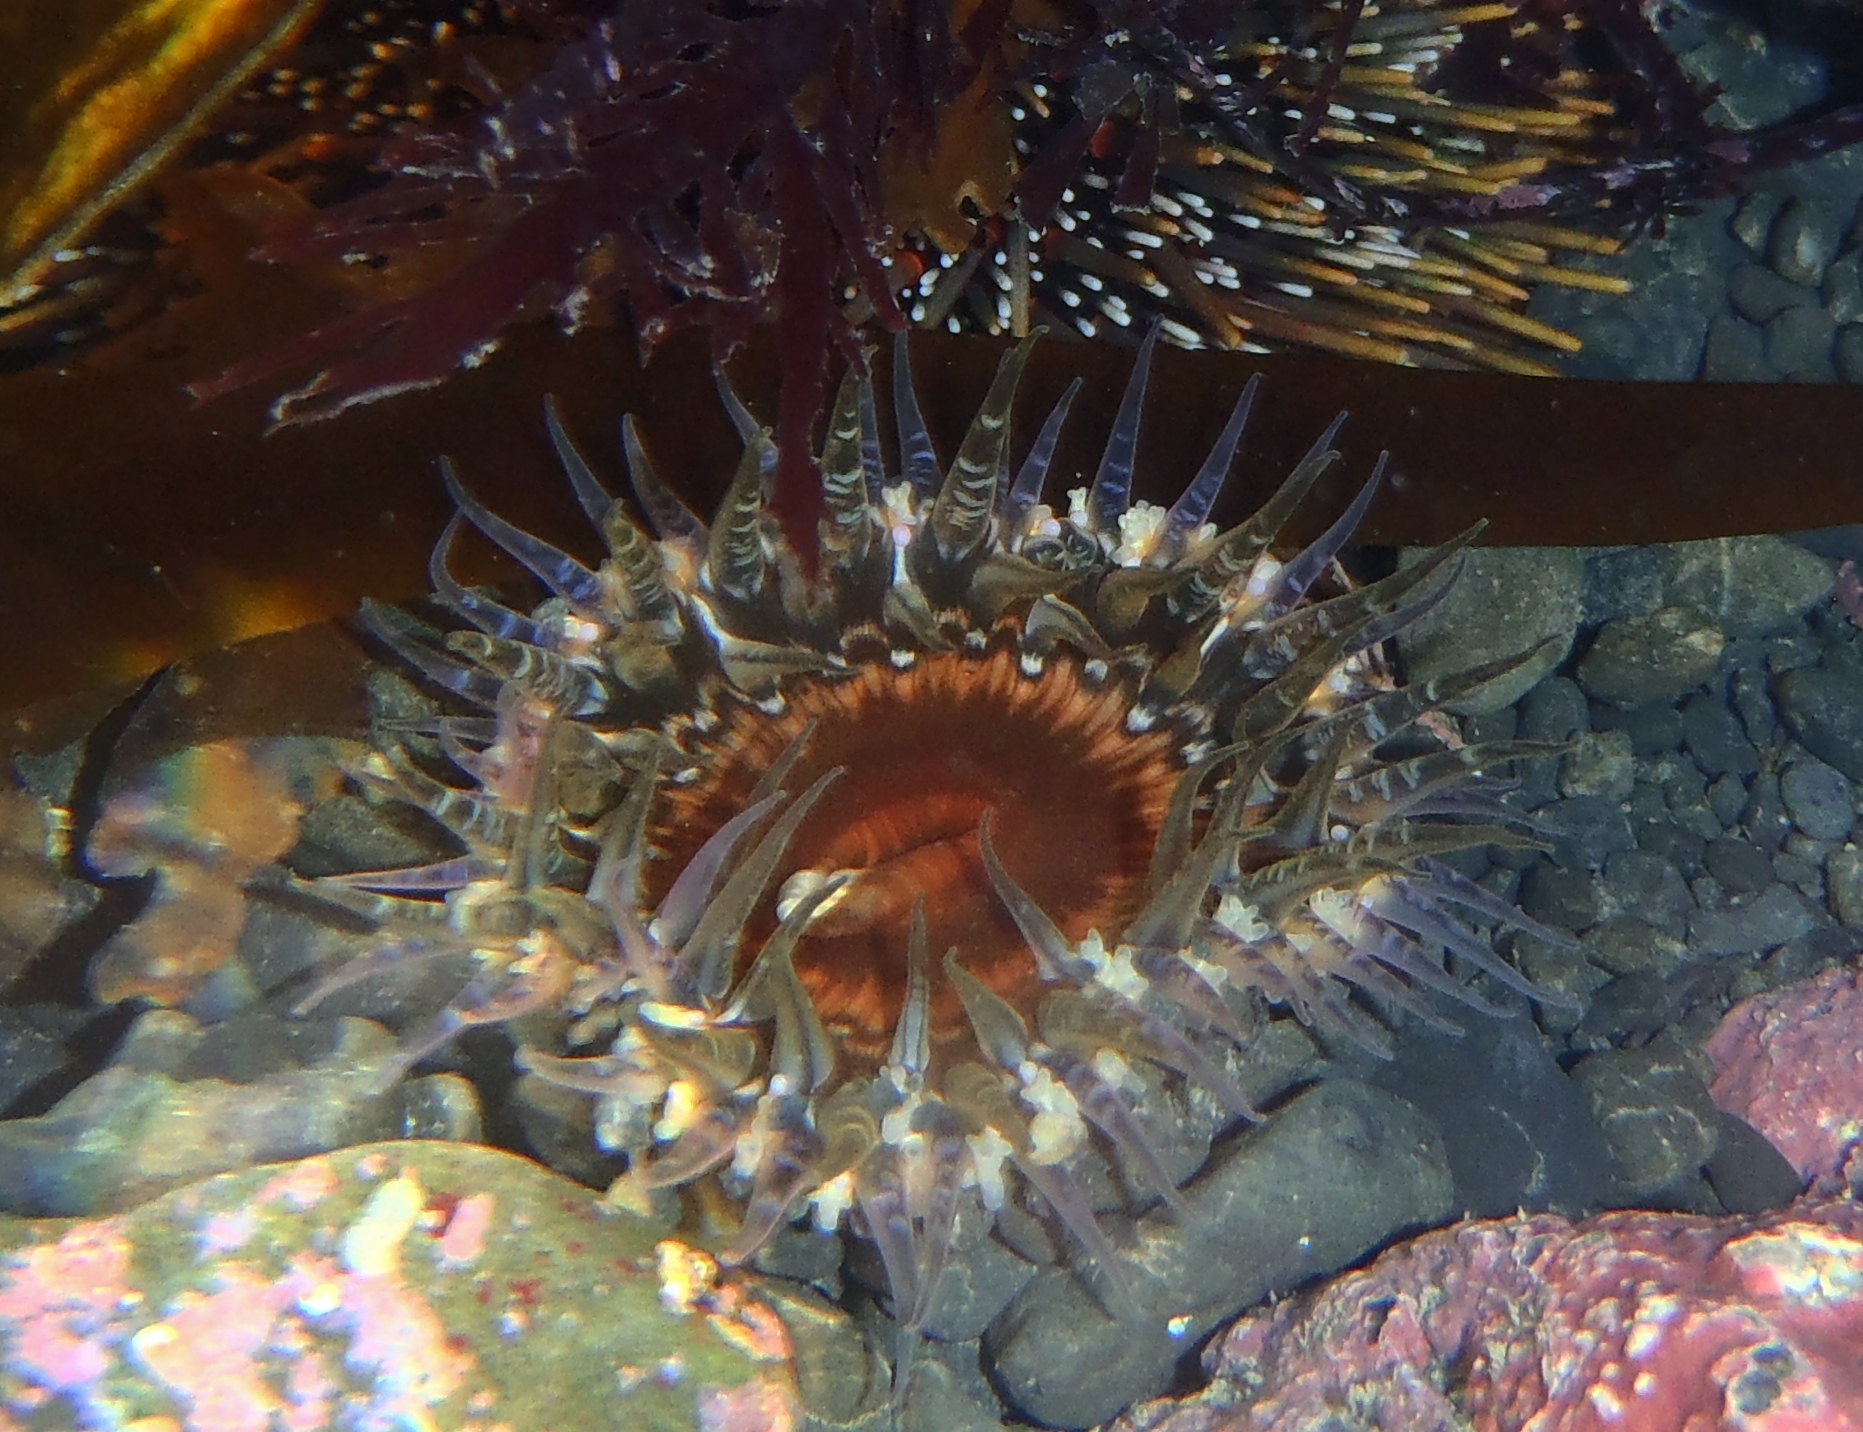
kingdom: Animalia
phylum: Cnidaria
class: Anthozoa
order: Actiniaria
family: Actiniidae
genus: Oulactis
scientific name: Oulactis muscosa
